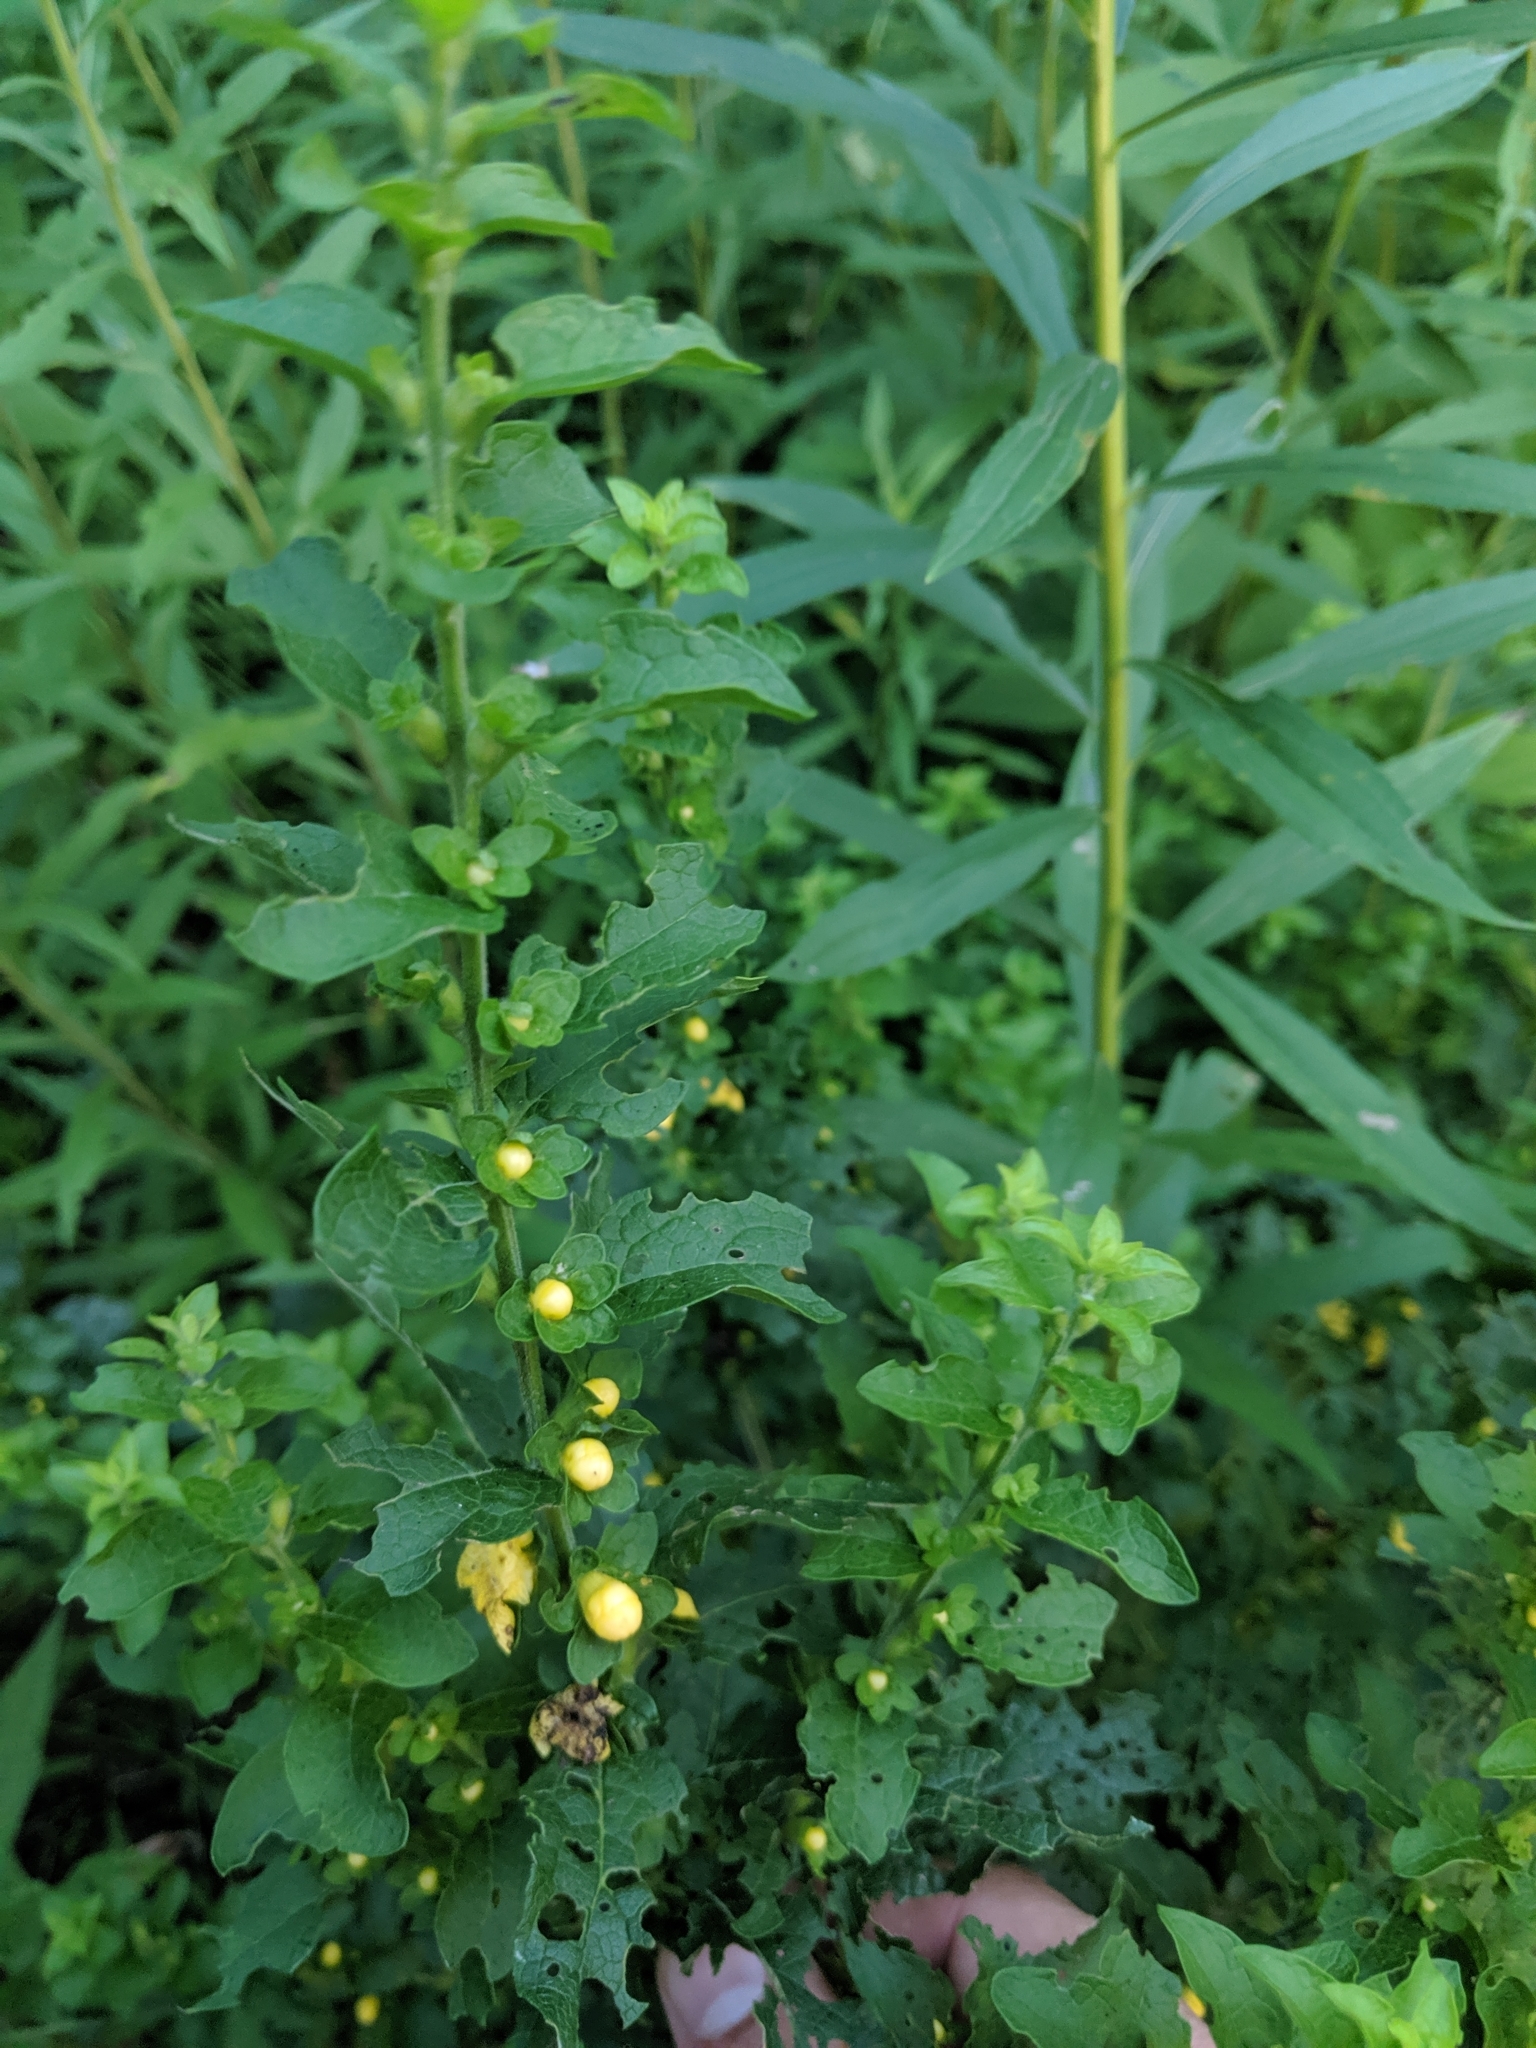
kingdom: Plantae
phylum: Tracheophyta
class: Magnoliopsida
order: Lamiales
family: Orobanchaceae
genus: Dasistoma
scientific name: Dasistoma macrophyllum
